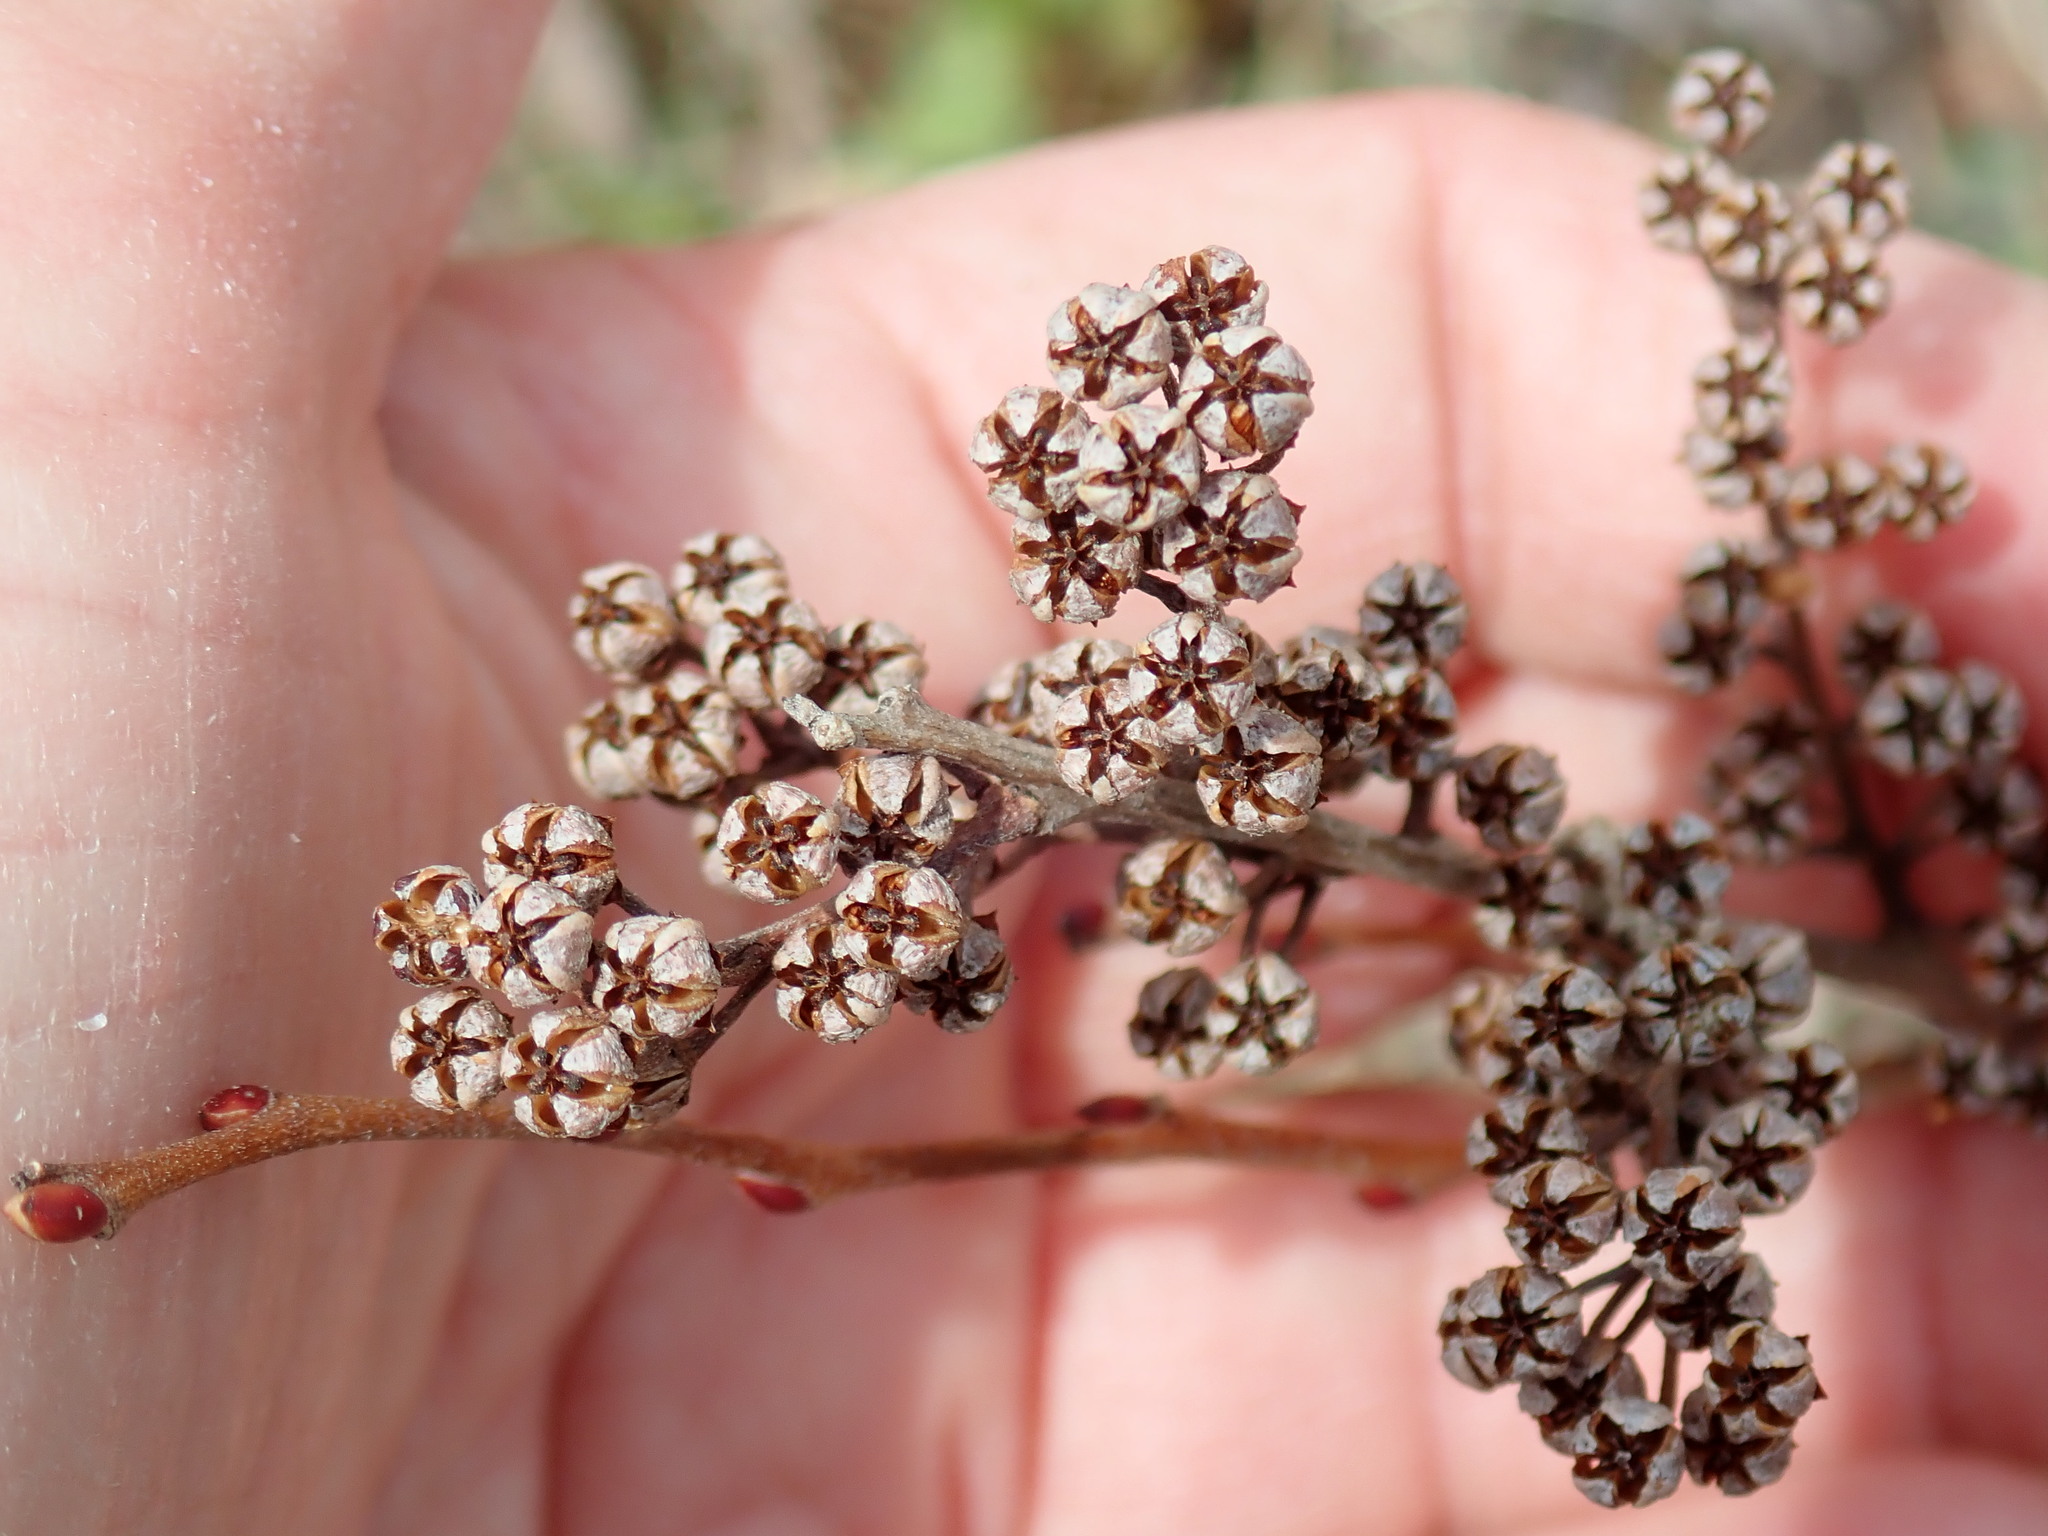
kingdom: Plantae
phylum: Tracheophyta
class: Magnoliopsida
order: Ericales
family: Ericaceae
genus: Lyonia
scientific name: Lyonia ligustrina
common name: Maleberry
